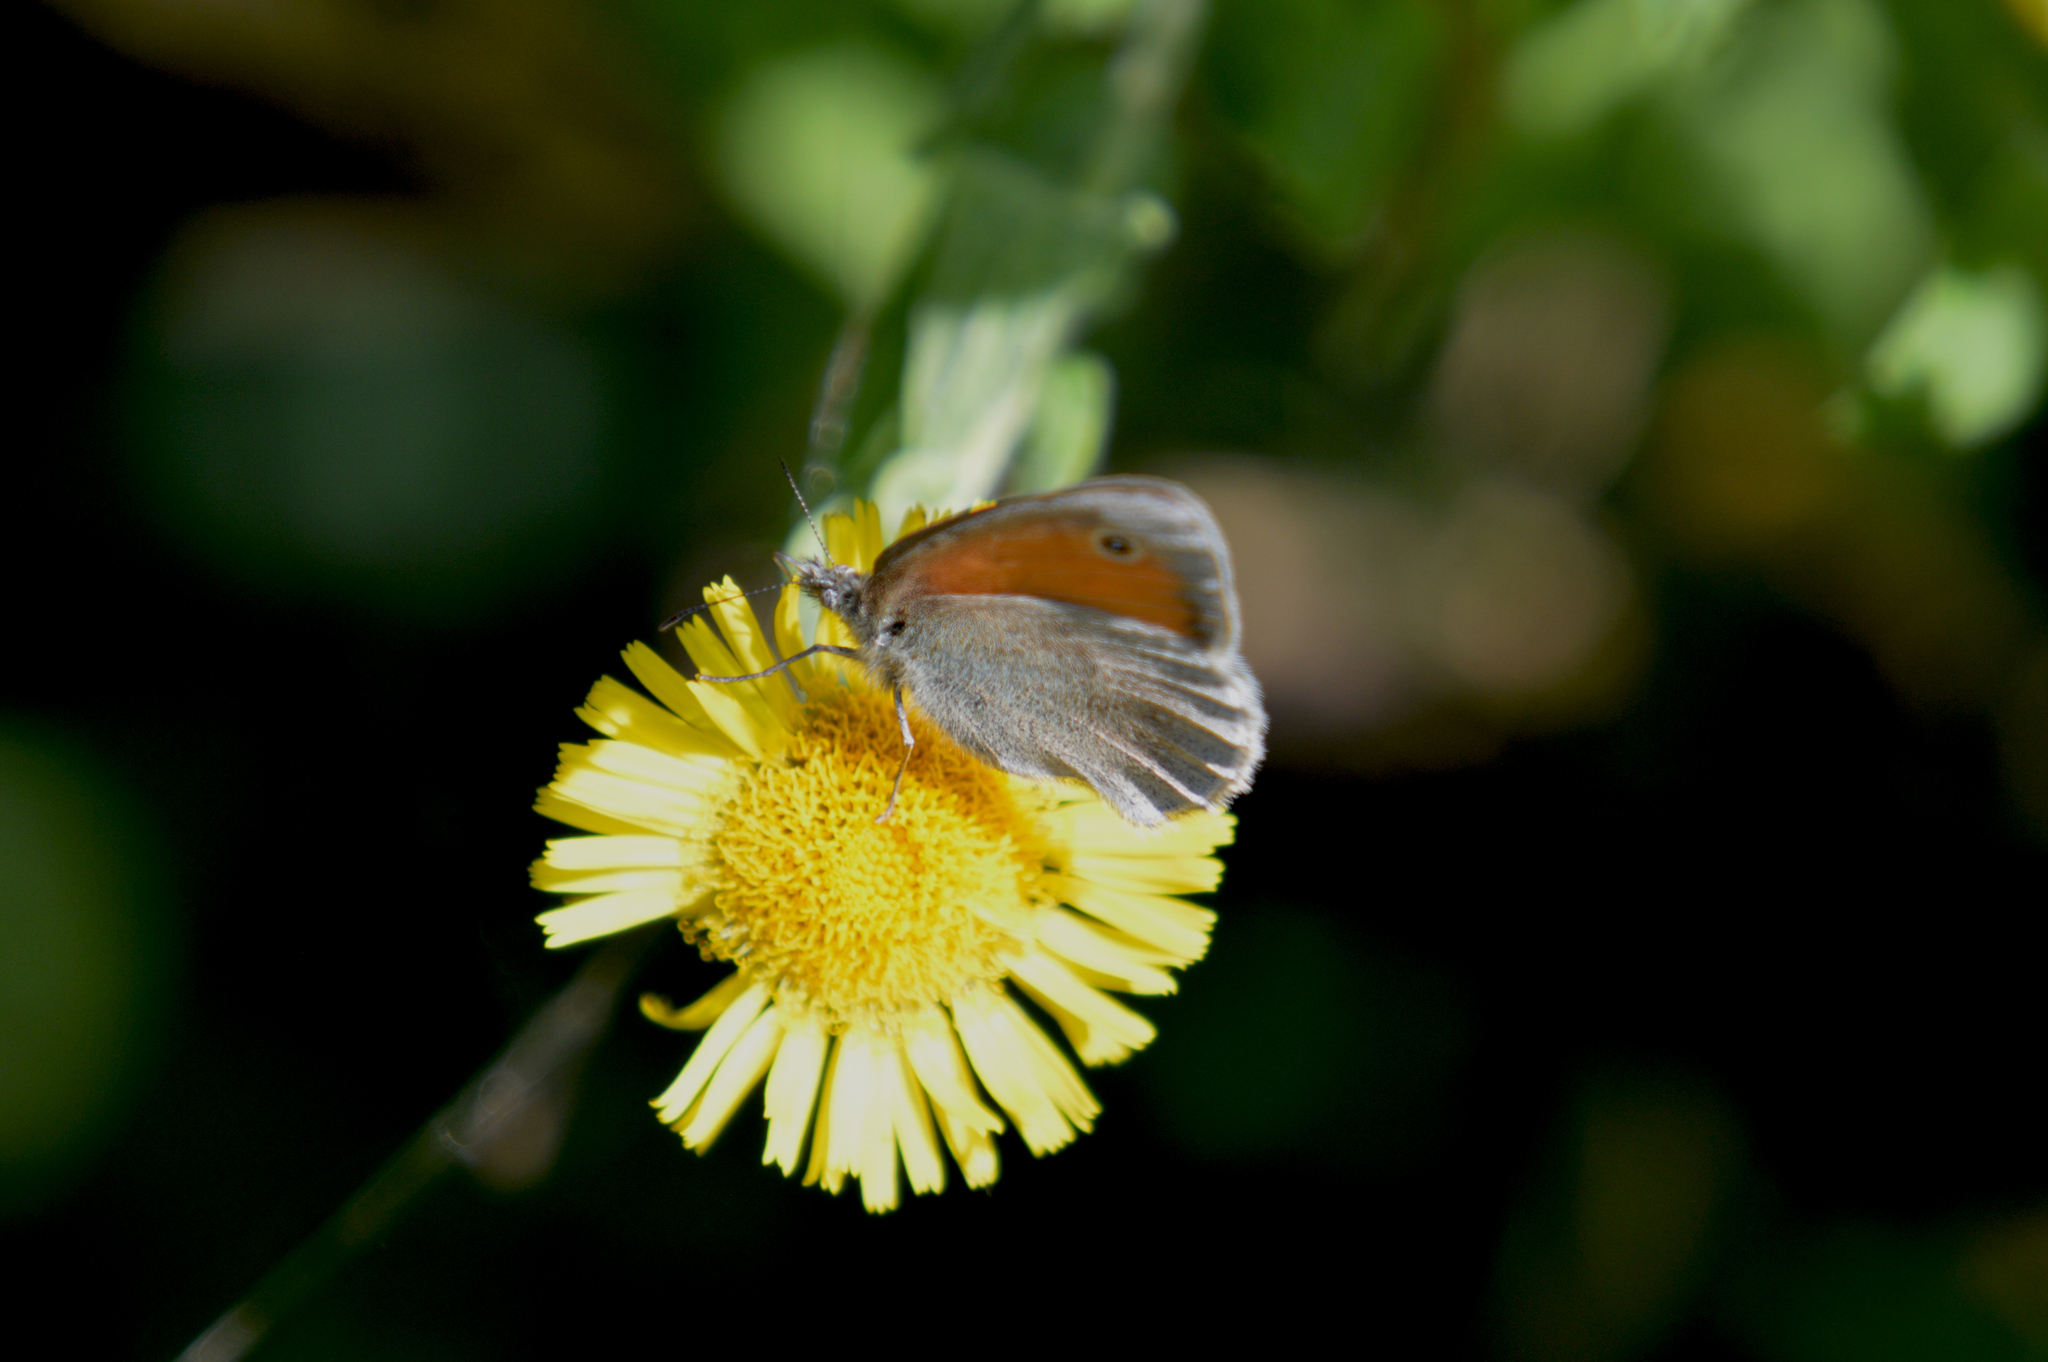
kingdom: Animalia
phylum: Arthropoda
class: Insecta
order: Lepidoptera
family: Nymphalidae
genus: Coenonympha
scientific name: Coenonympha pamphilus
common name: Small heath
